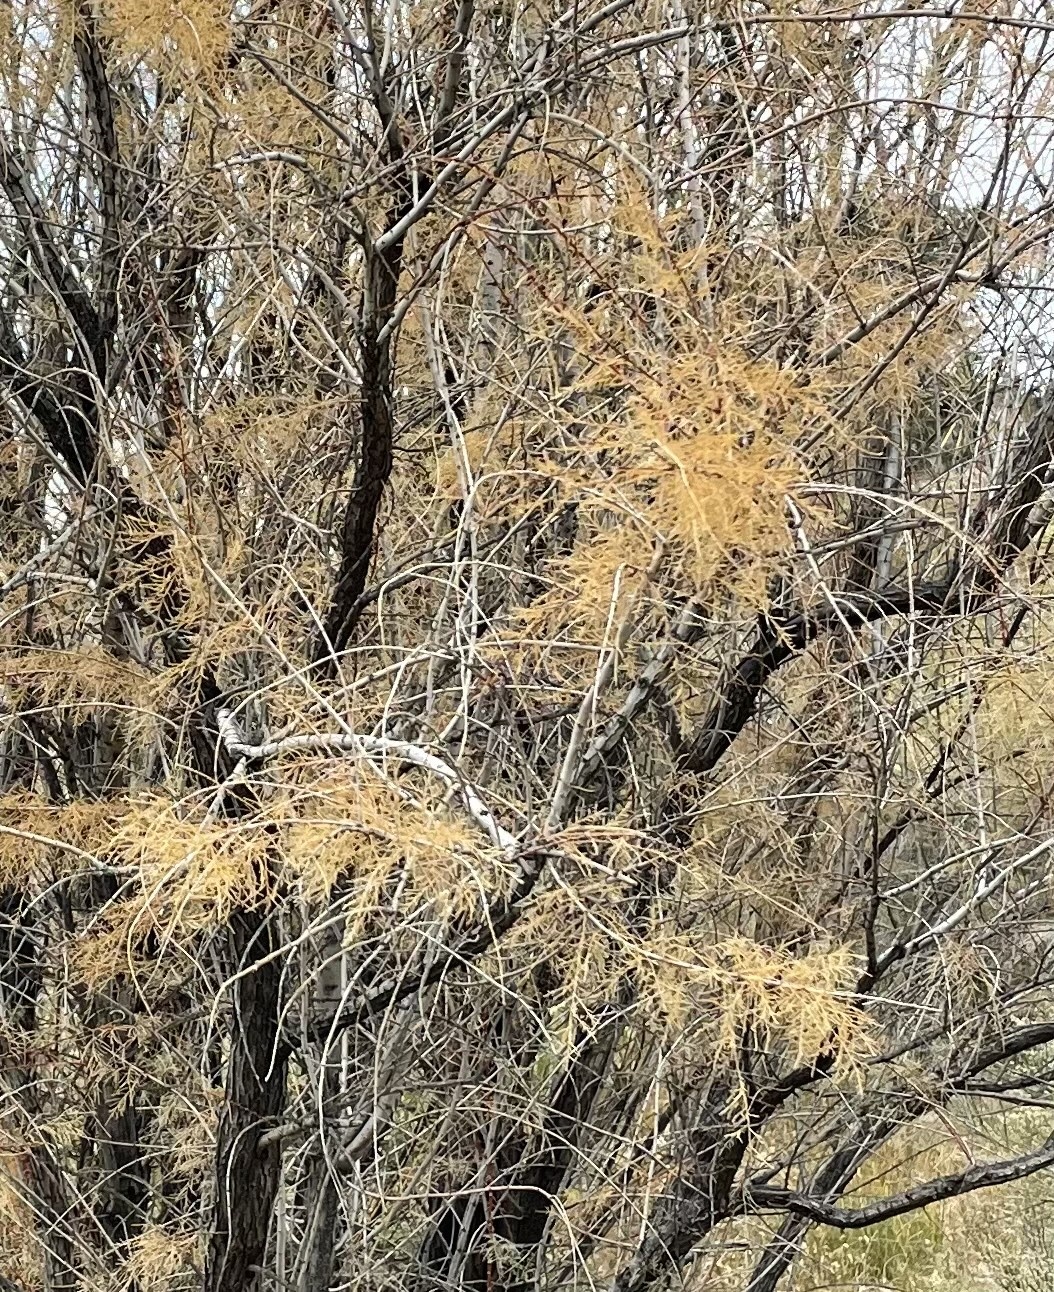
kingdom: Plantae
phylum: Tracheophyta
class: Magnoliopsida
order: Caryophyllales
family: Tamaricaceae
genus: Tamarix
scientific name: Tamarix ramosissima
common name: Pink tamarisk
